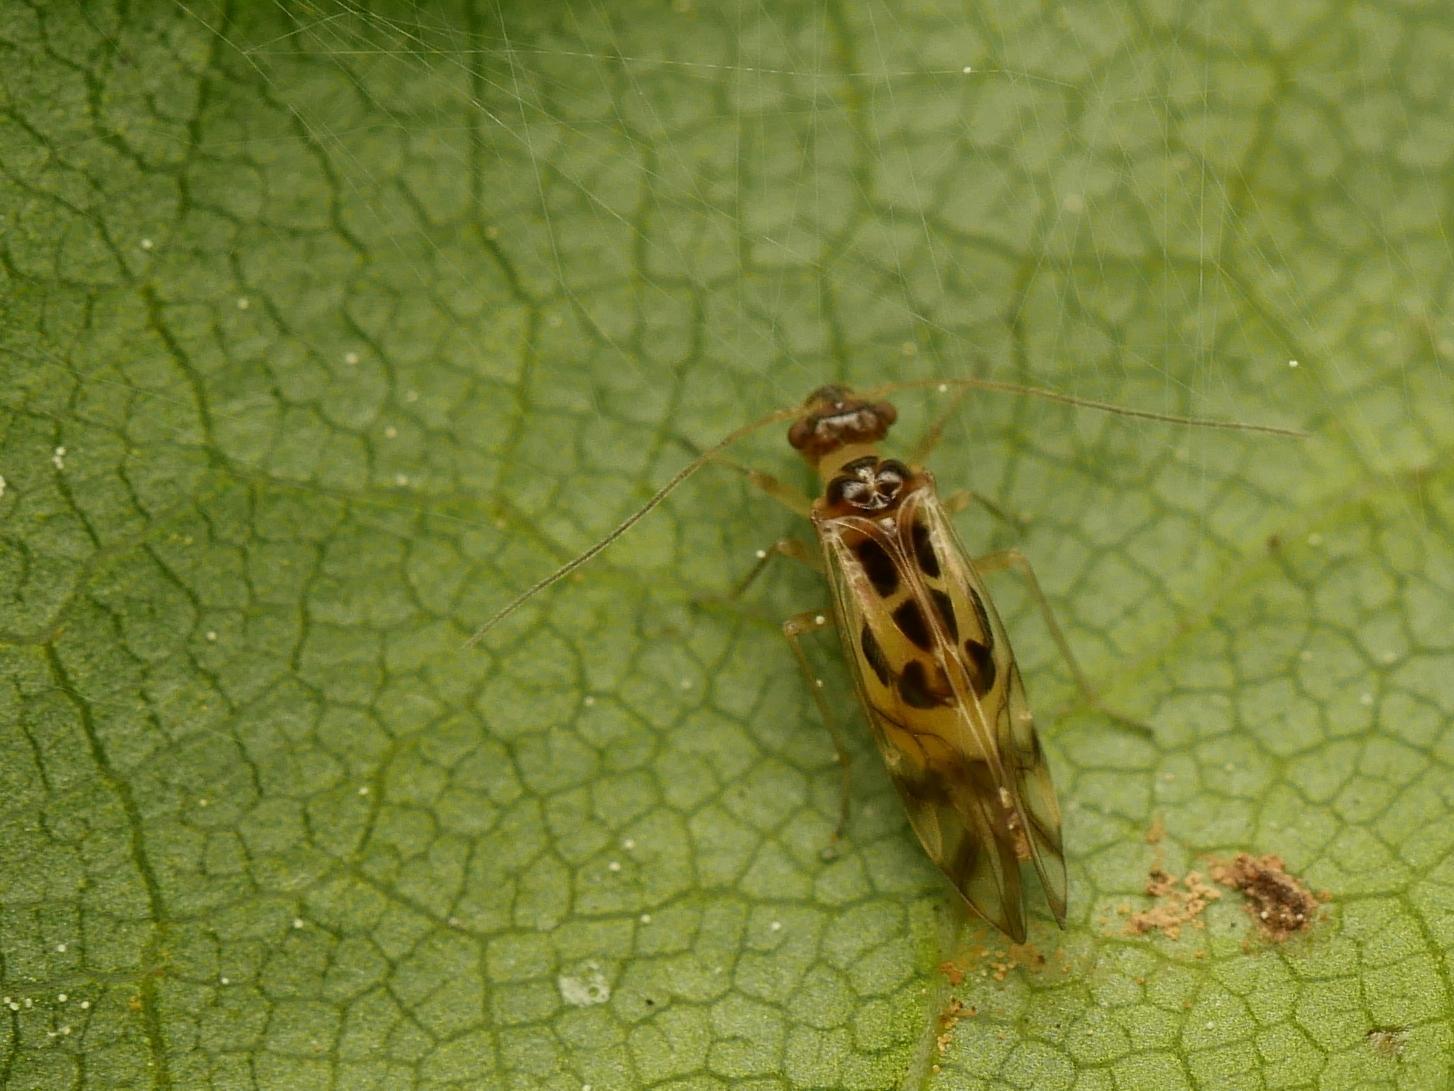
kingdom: Animalia
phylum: Arthropoda
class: Insecta
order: Psocodea
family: Stenopsocidae
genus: Graphopsocus
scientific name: Graphopsocus cruciatus
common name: Lizard bark louse
